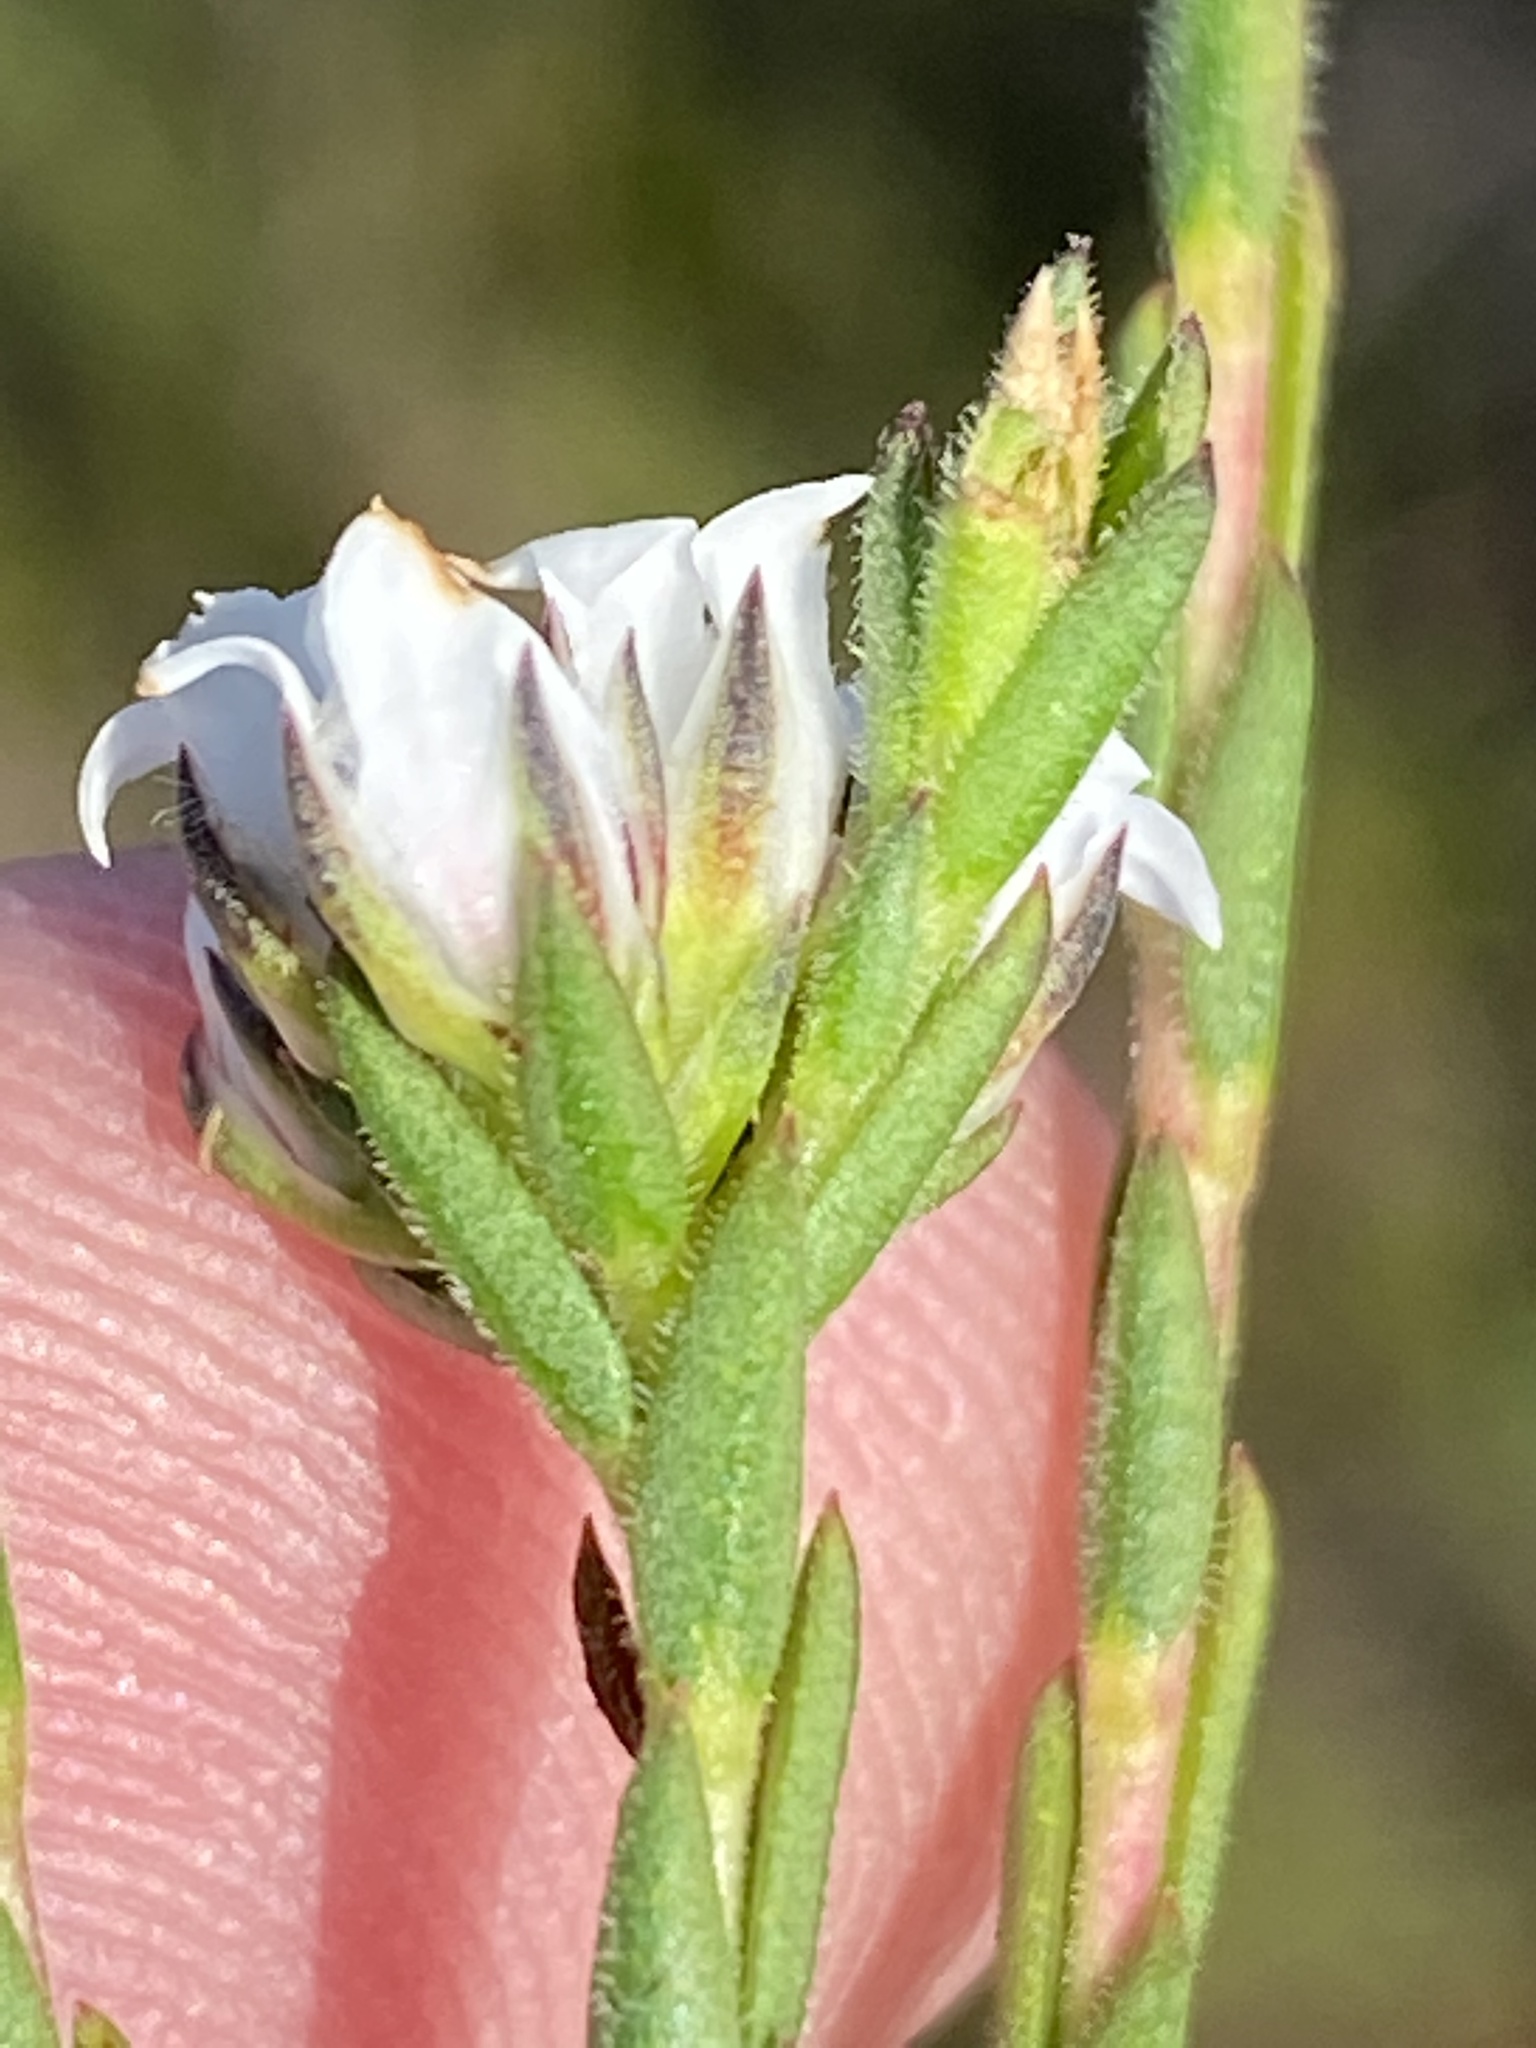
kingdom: Plantae
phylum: Tracheophyta
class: Magnoliopsida
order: Sapindales
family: Rutaceae
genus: Euchaetis
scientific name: Euchaetis diosmoides
